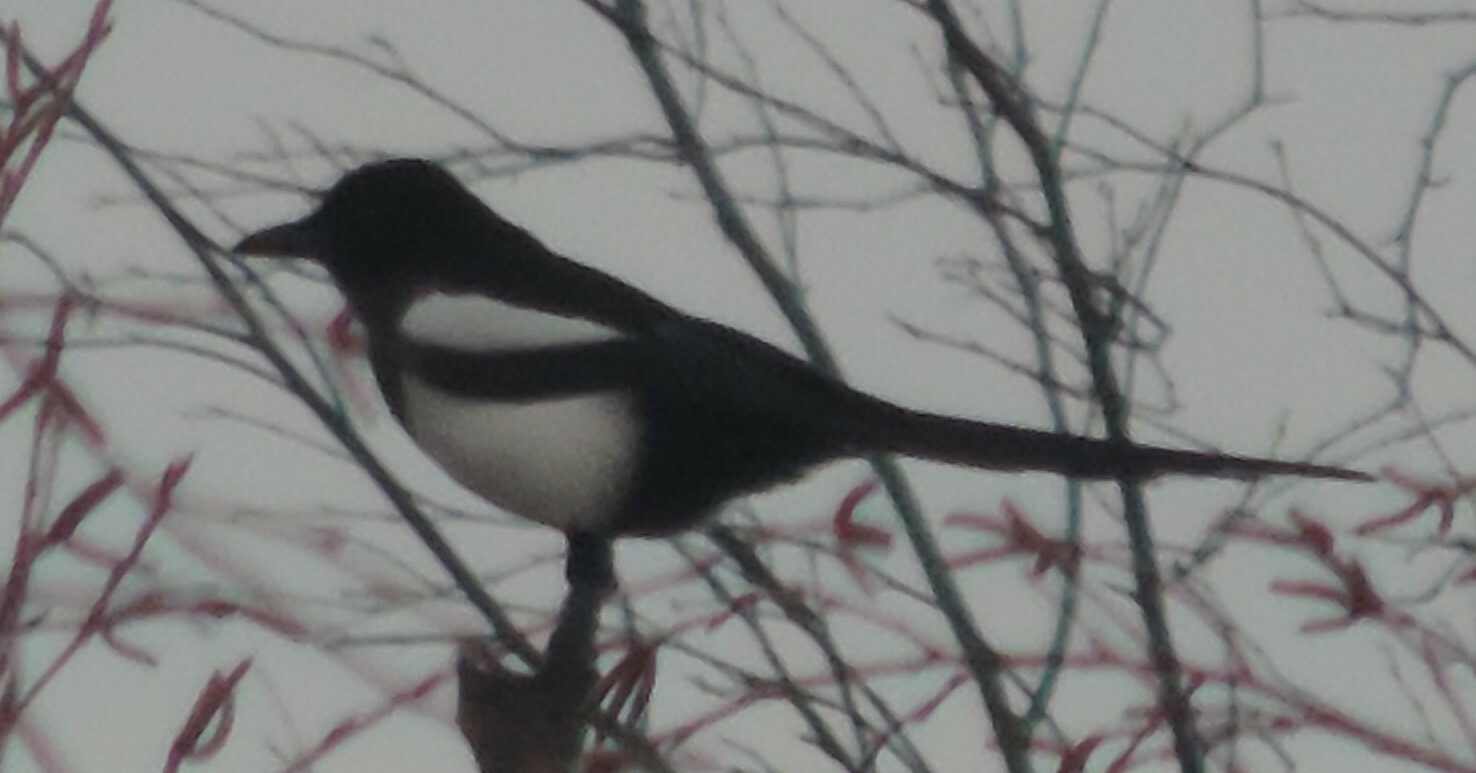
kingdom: Animalia
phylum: Chordata
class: Aves
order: Passeriformes
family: Corvidae
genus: Pica
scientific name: Pica hudsonia
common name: Black-billed magpie
